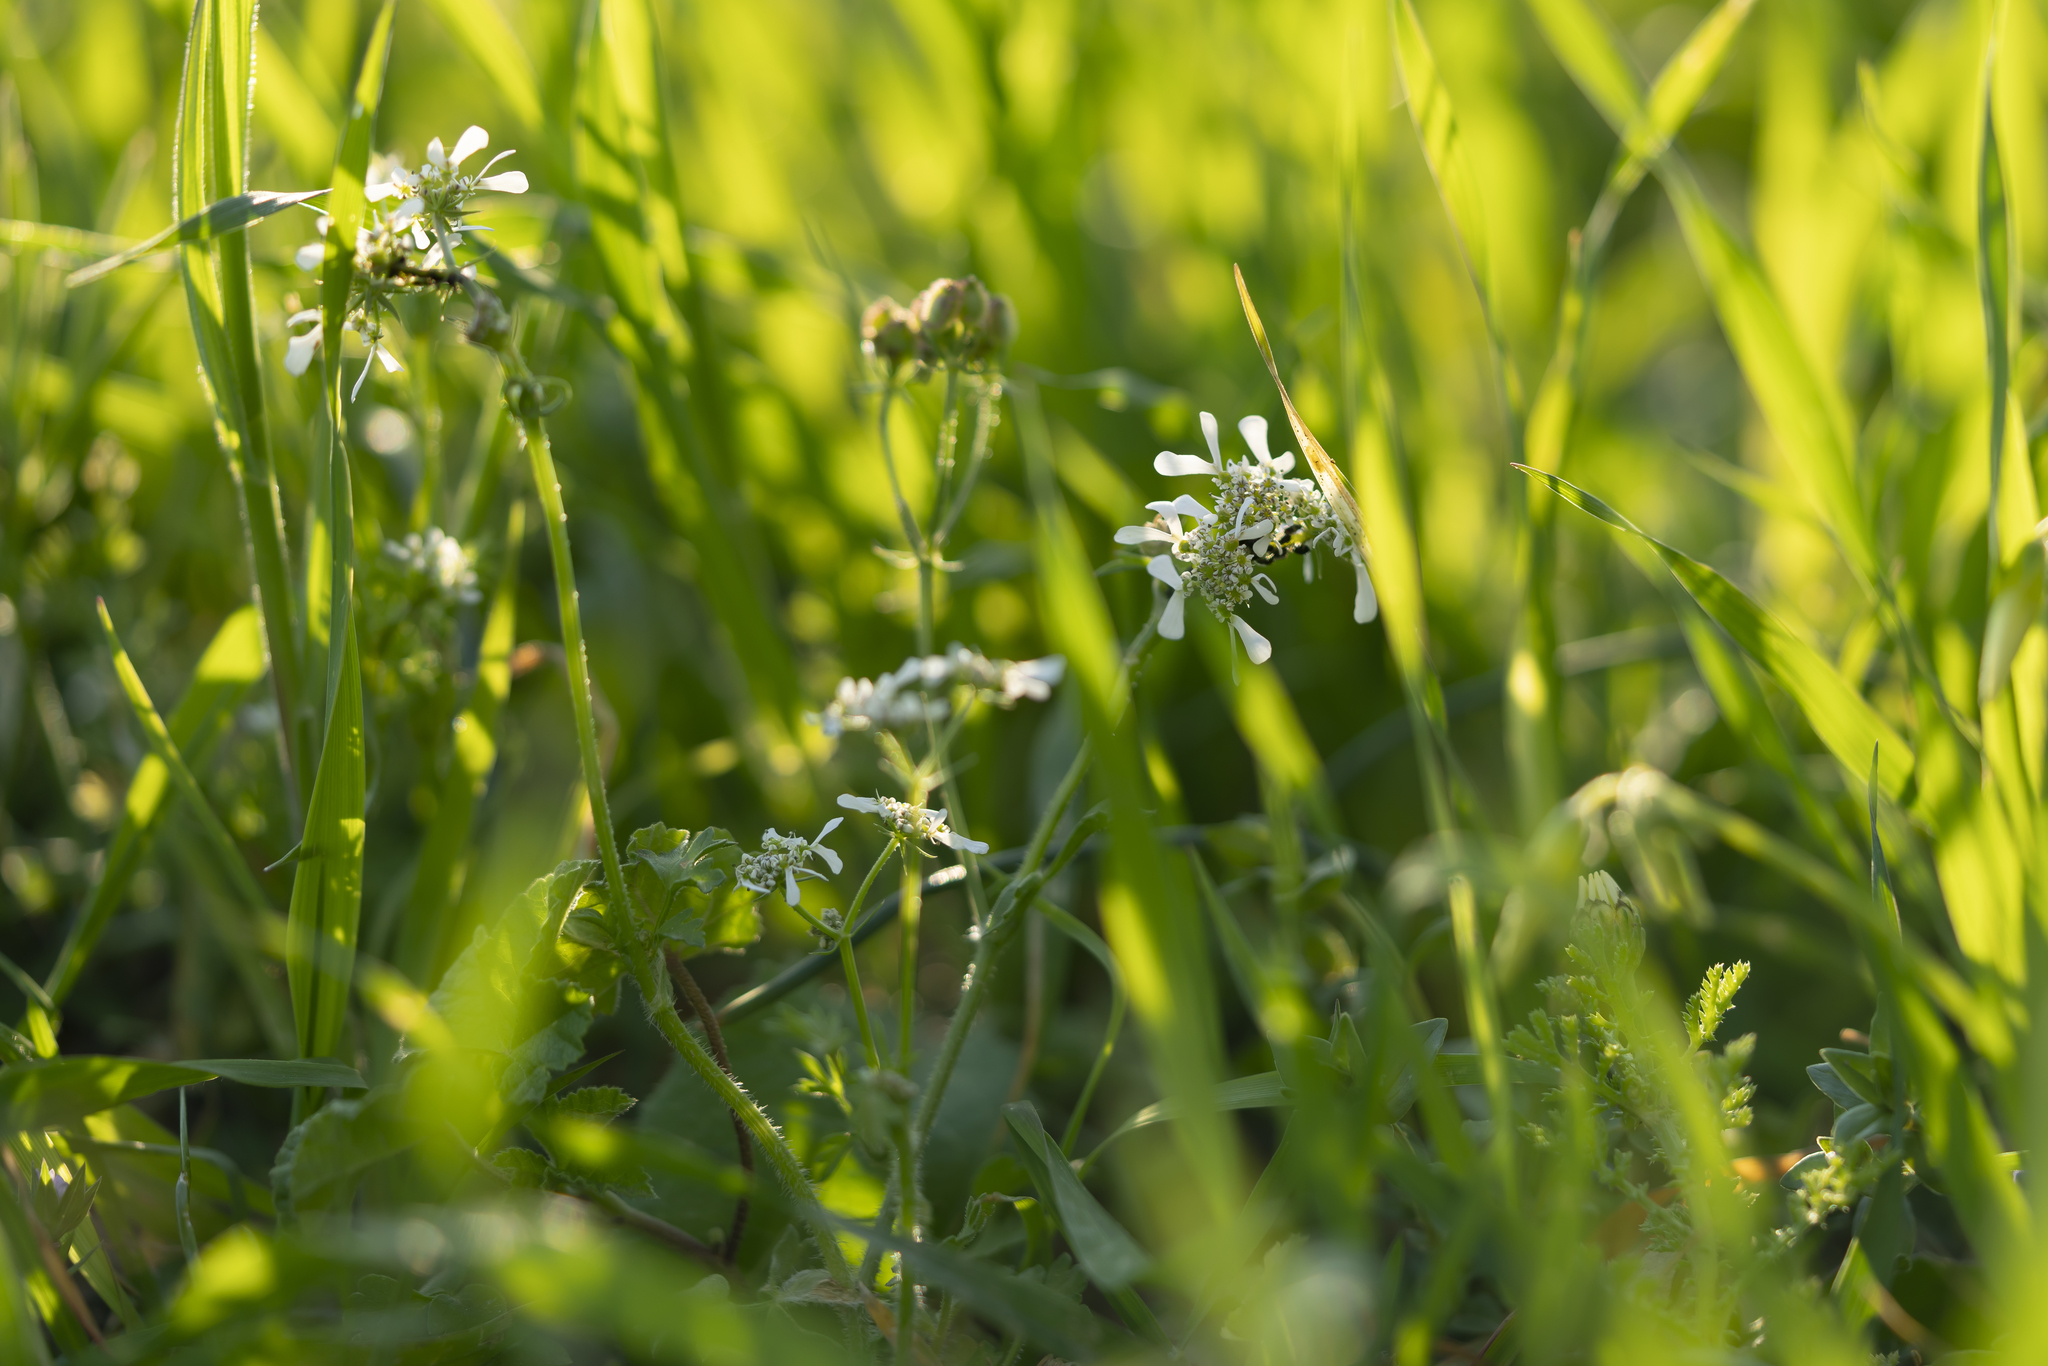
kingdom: Plantae
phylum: Tracheophyta
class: Magnoliopsida
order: Apiales
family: Apiaceae
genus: Tordylium
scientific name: Tordylium apulum
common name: Mediterranean hartwort
